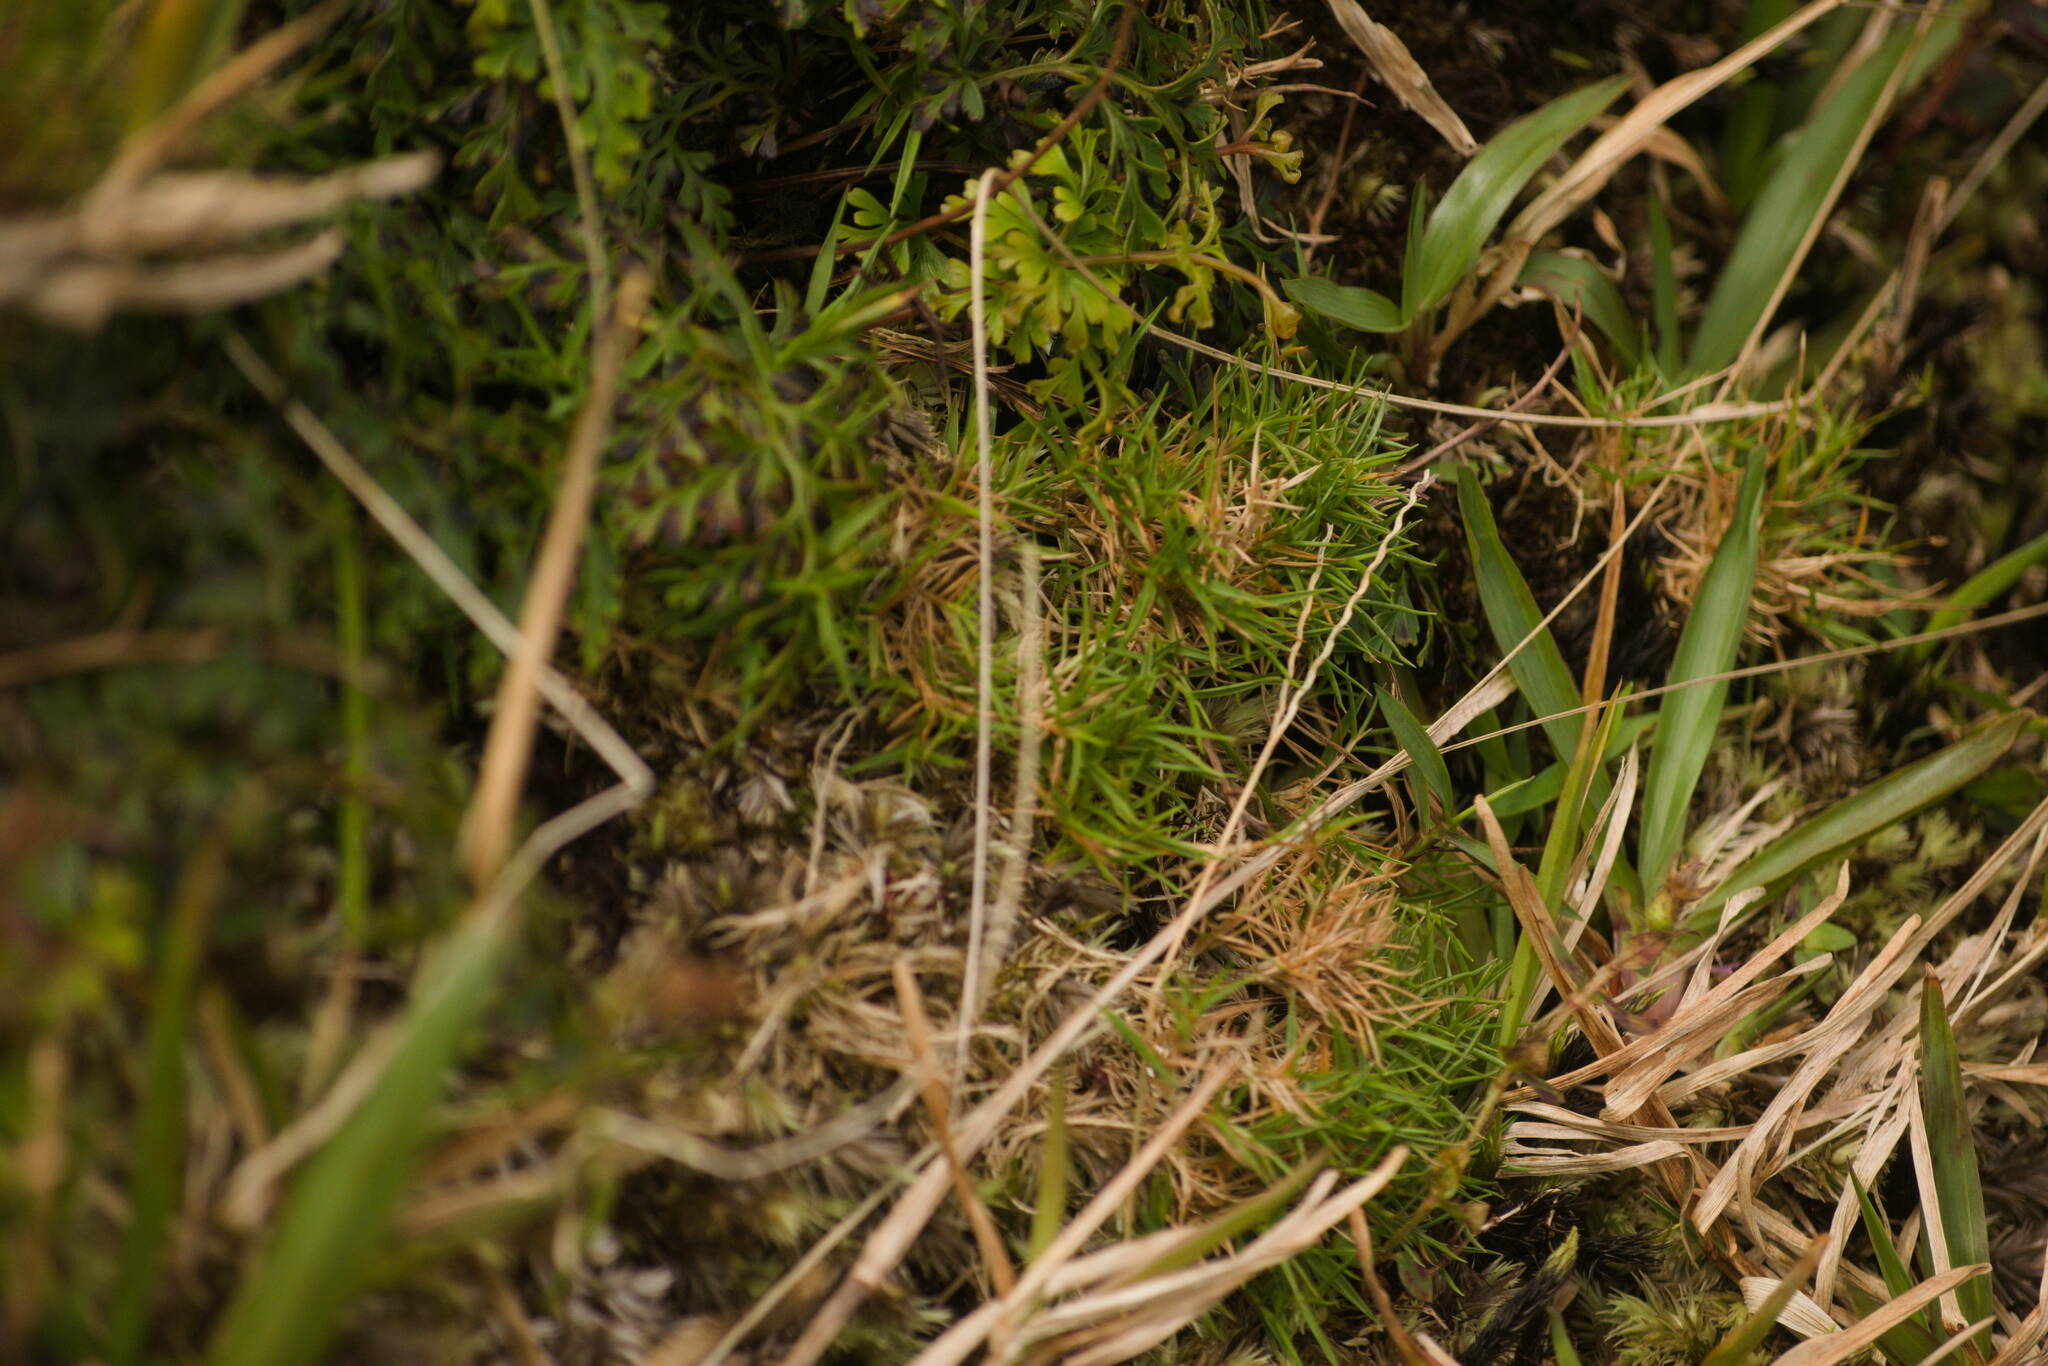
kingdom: Plantae
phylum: Tracheophyta
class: Liliopsida
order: Poales
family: Poaceae
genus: Dichanthelium
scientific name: Dichanthelium koolauense
